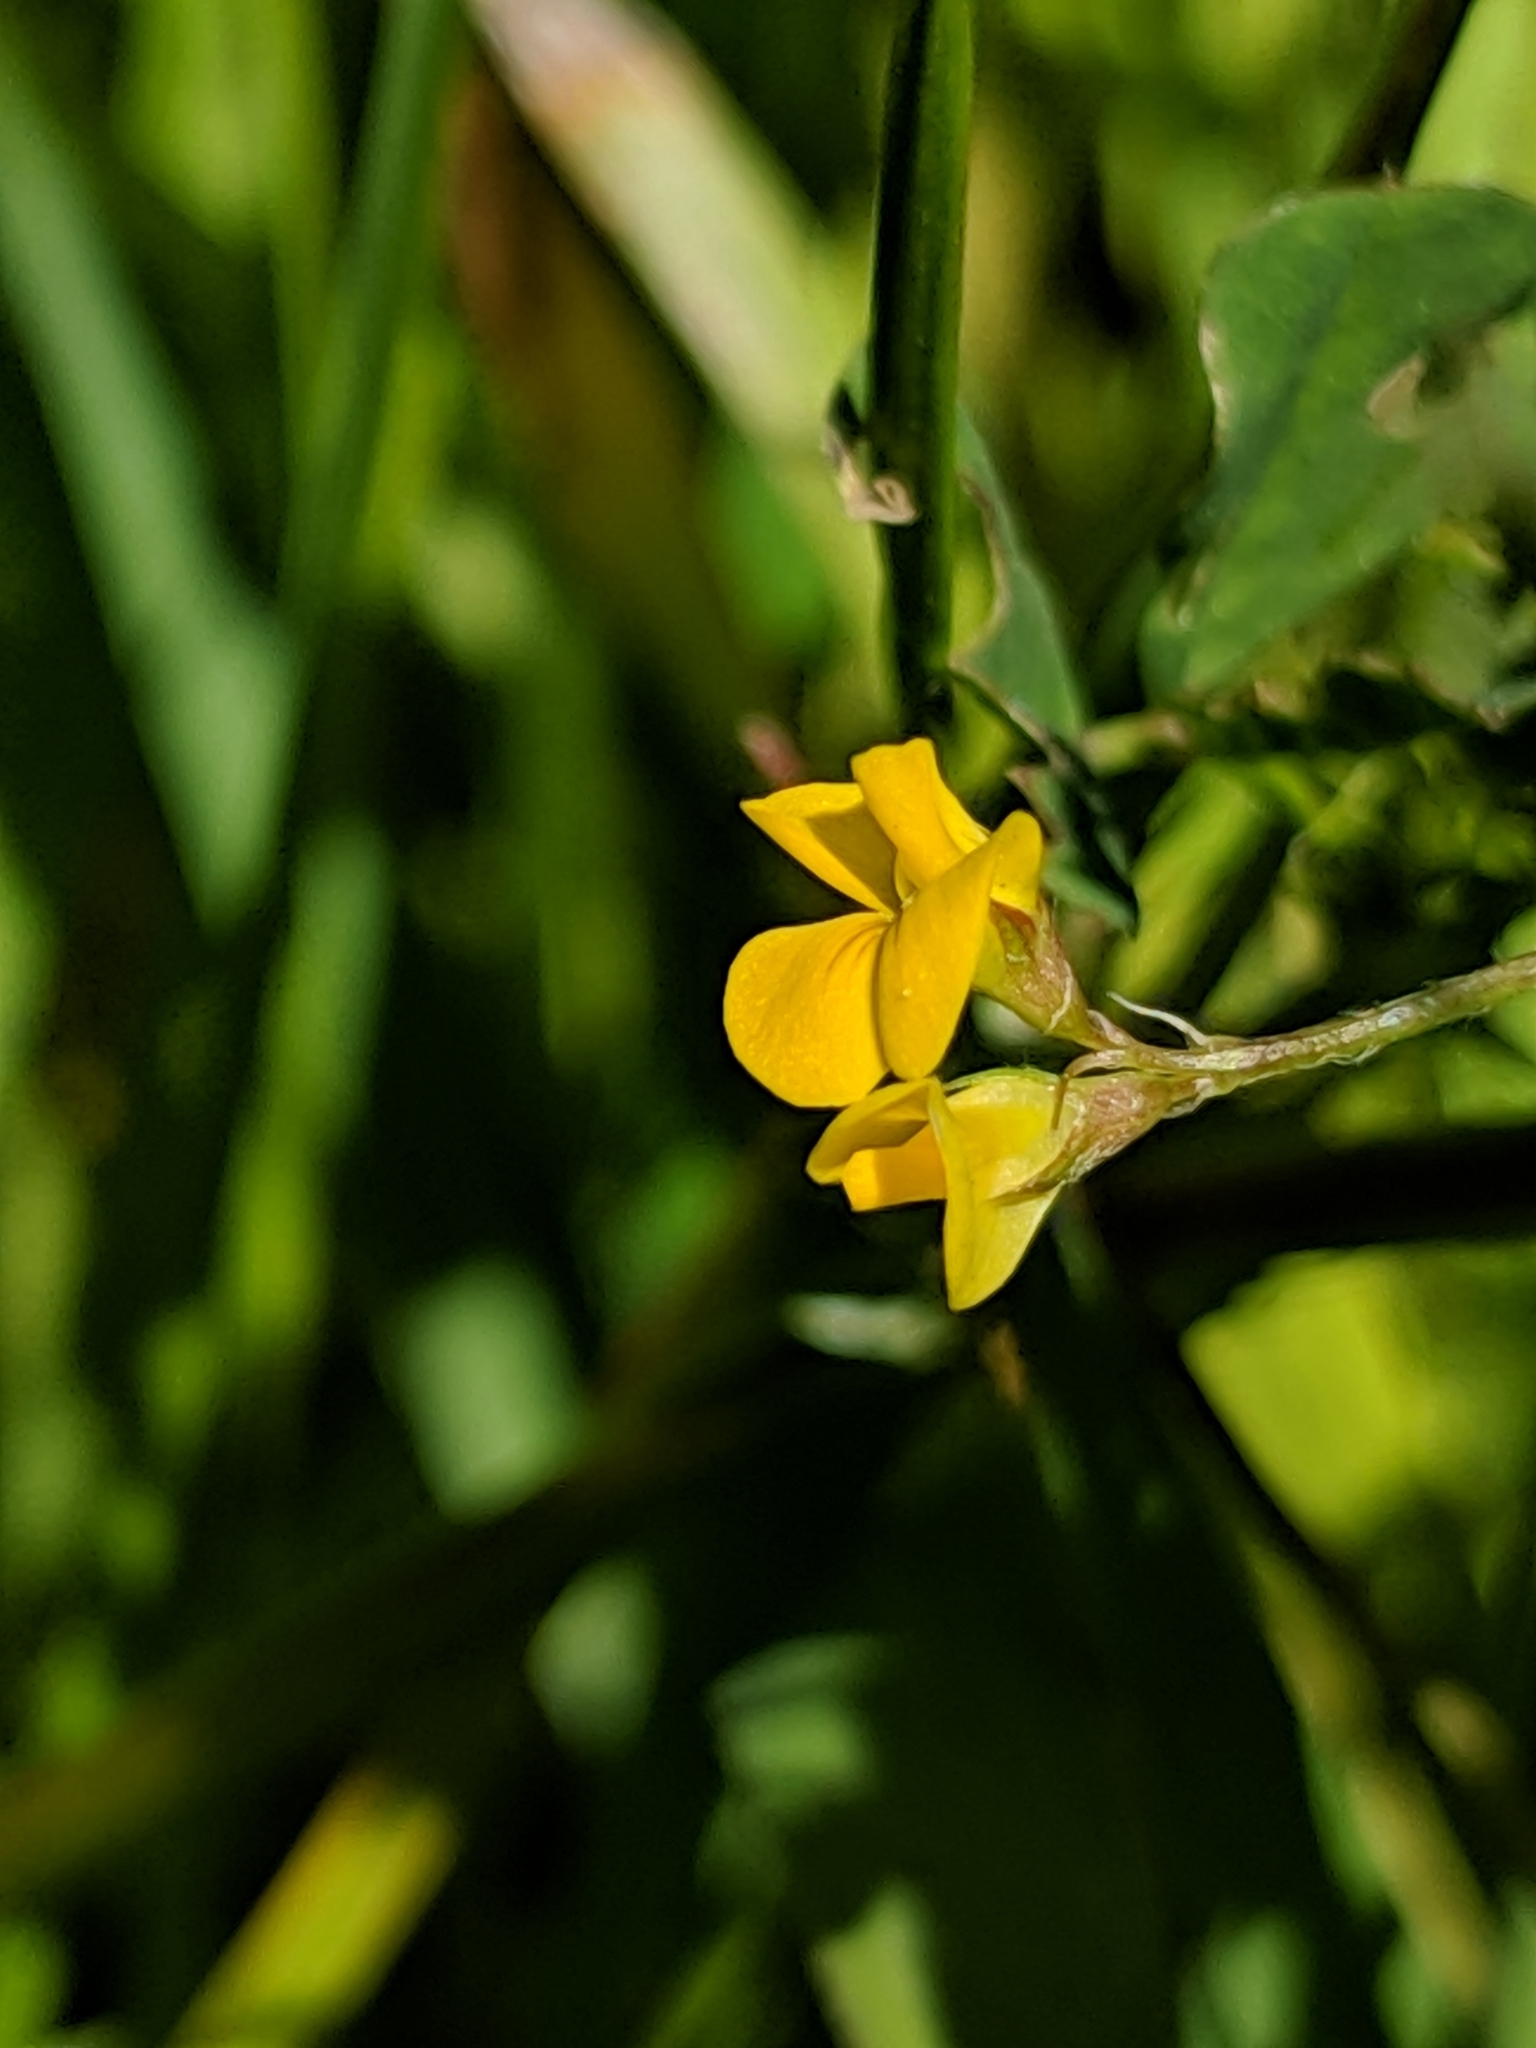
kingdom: Plantae
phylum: Tracheophyta
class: Magnoliopsida
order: Fabales
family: Fabaceae
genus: Medicago
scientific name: Medicago polymorpha
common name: Burclover
